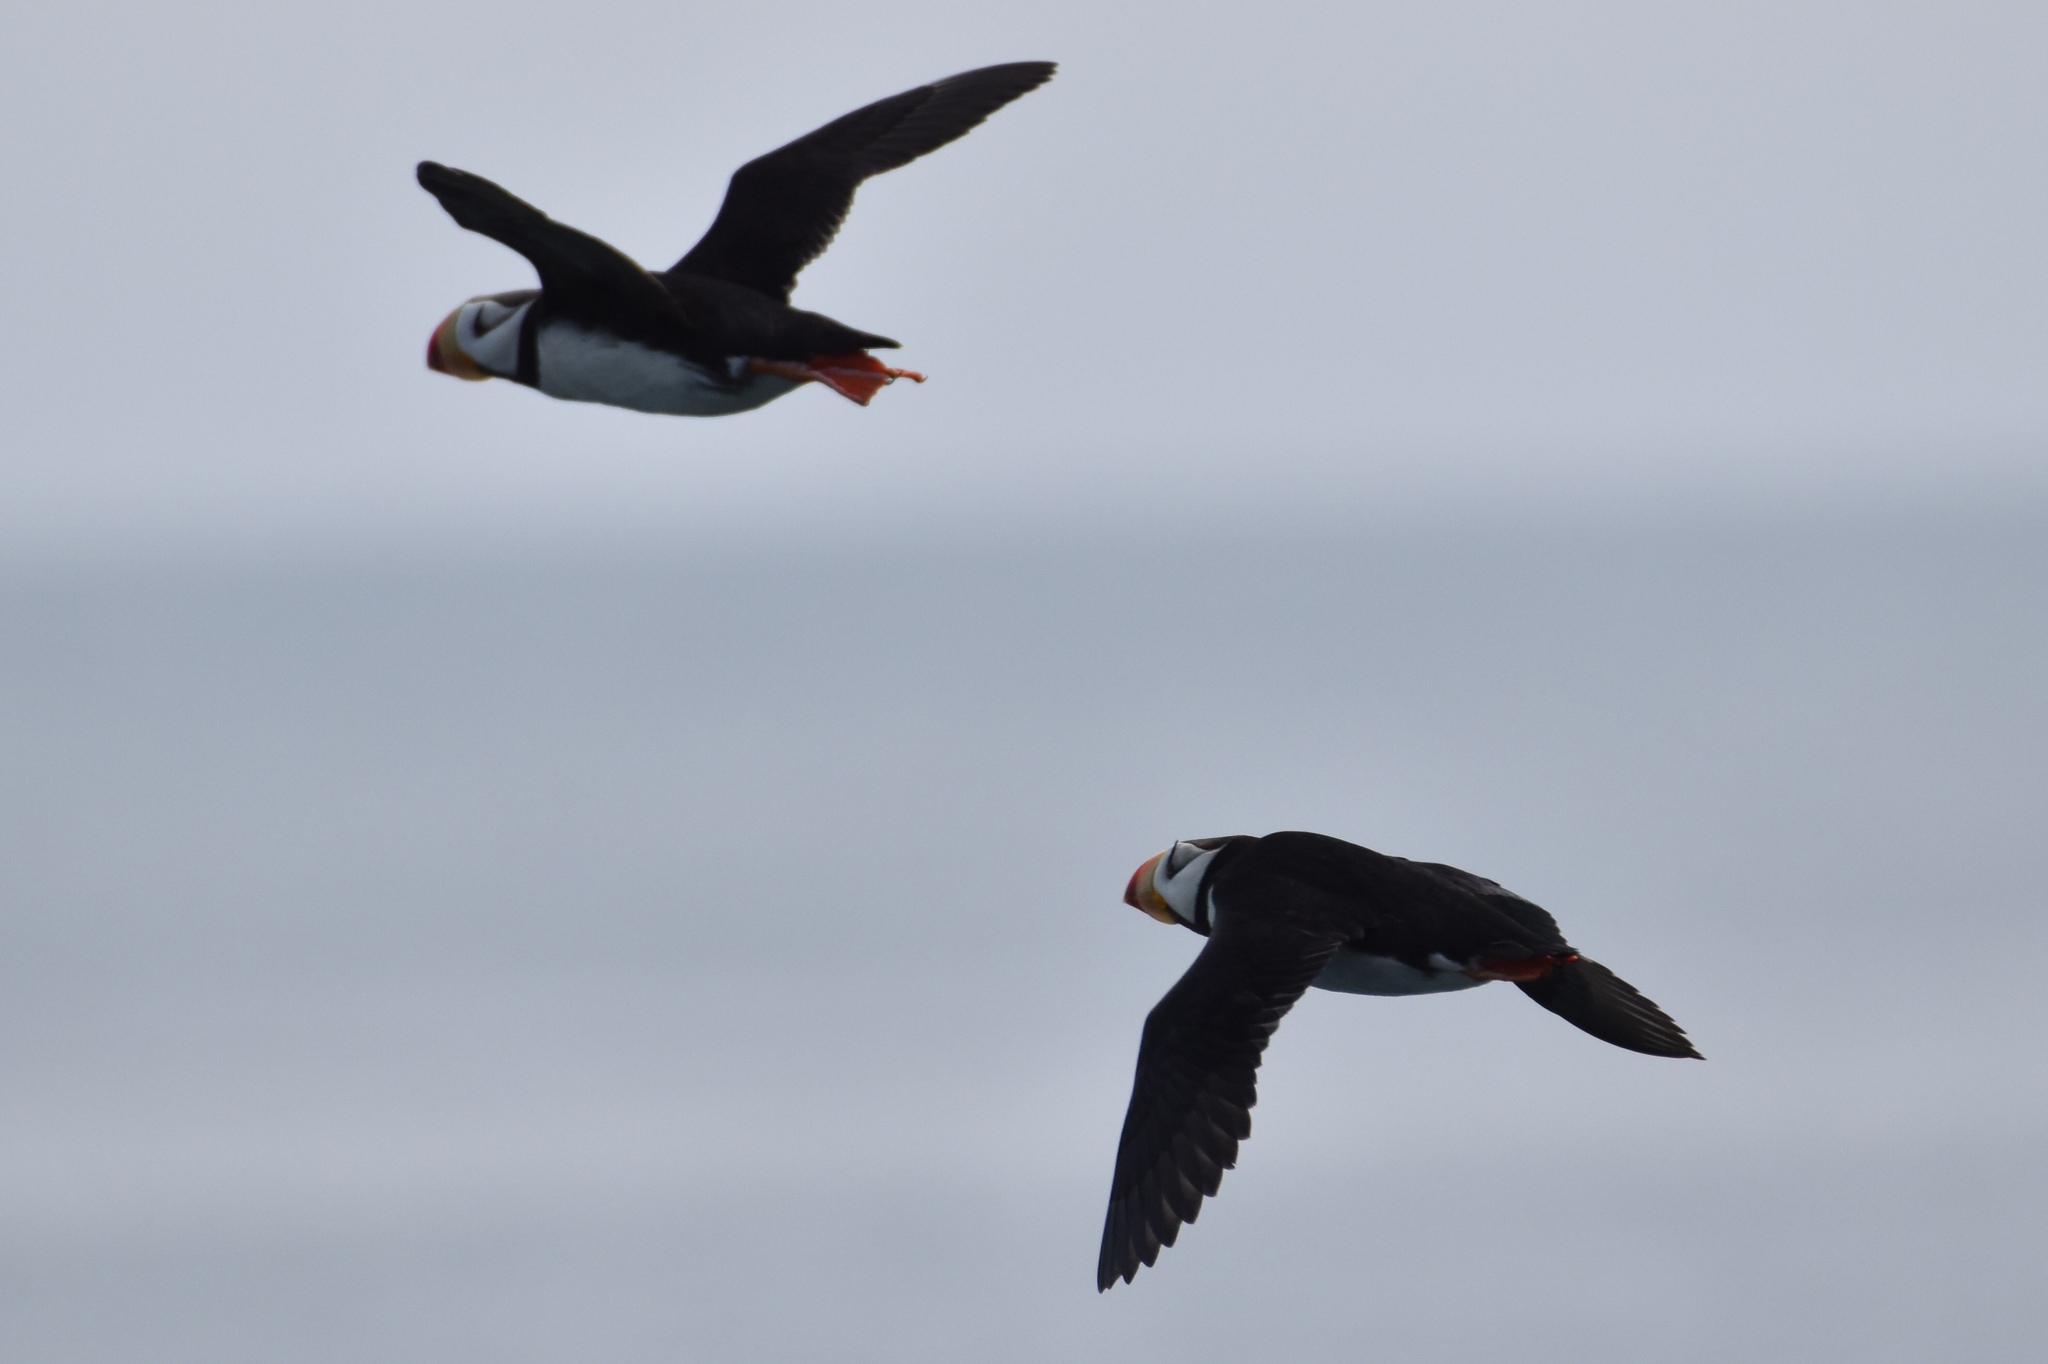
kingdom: Animalia
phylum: Chordata
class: Aves
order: Charadriiformes
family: Alcidae
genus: Fratercula
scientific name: Fratercula corniculata
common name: Horned puffin
